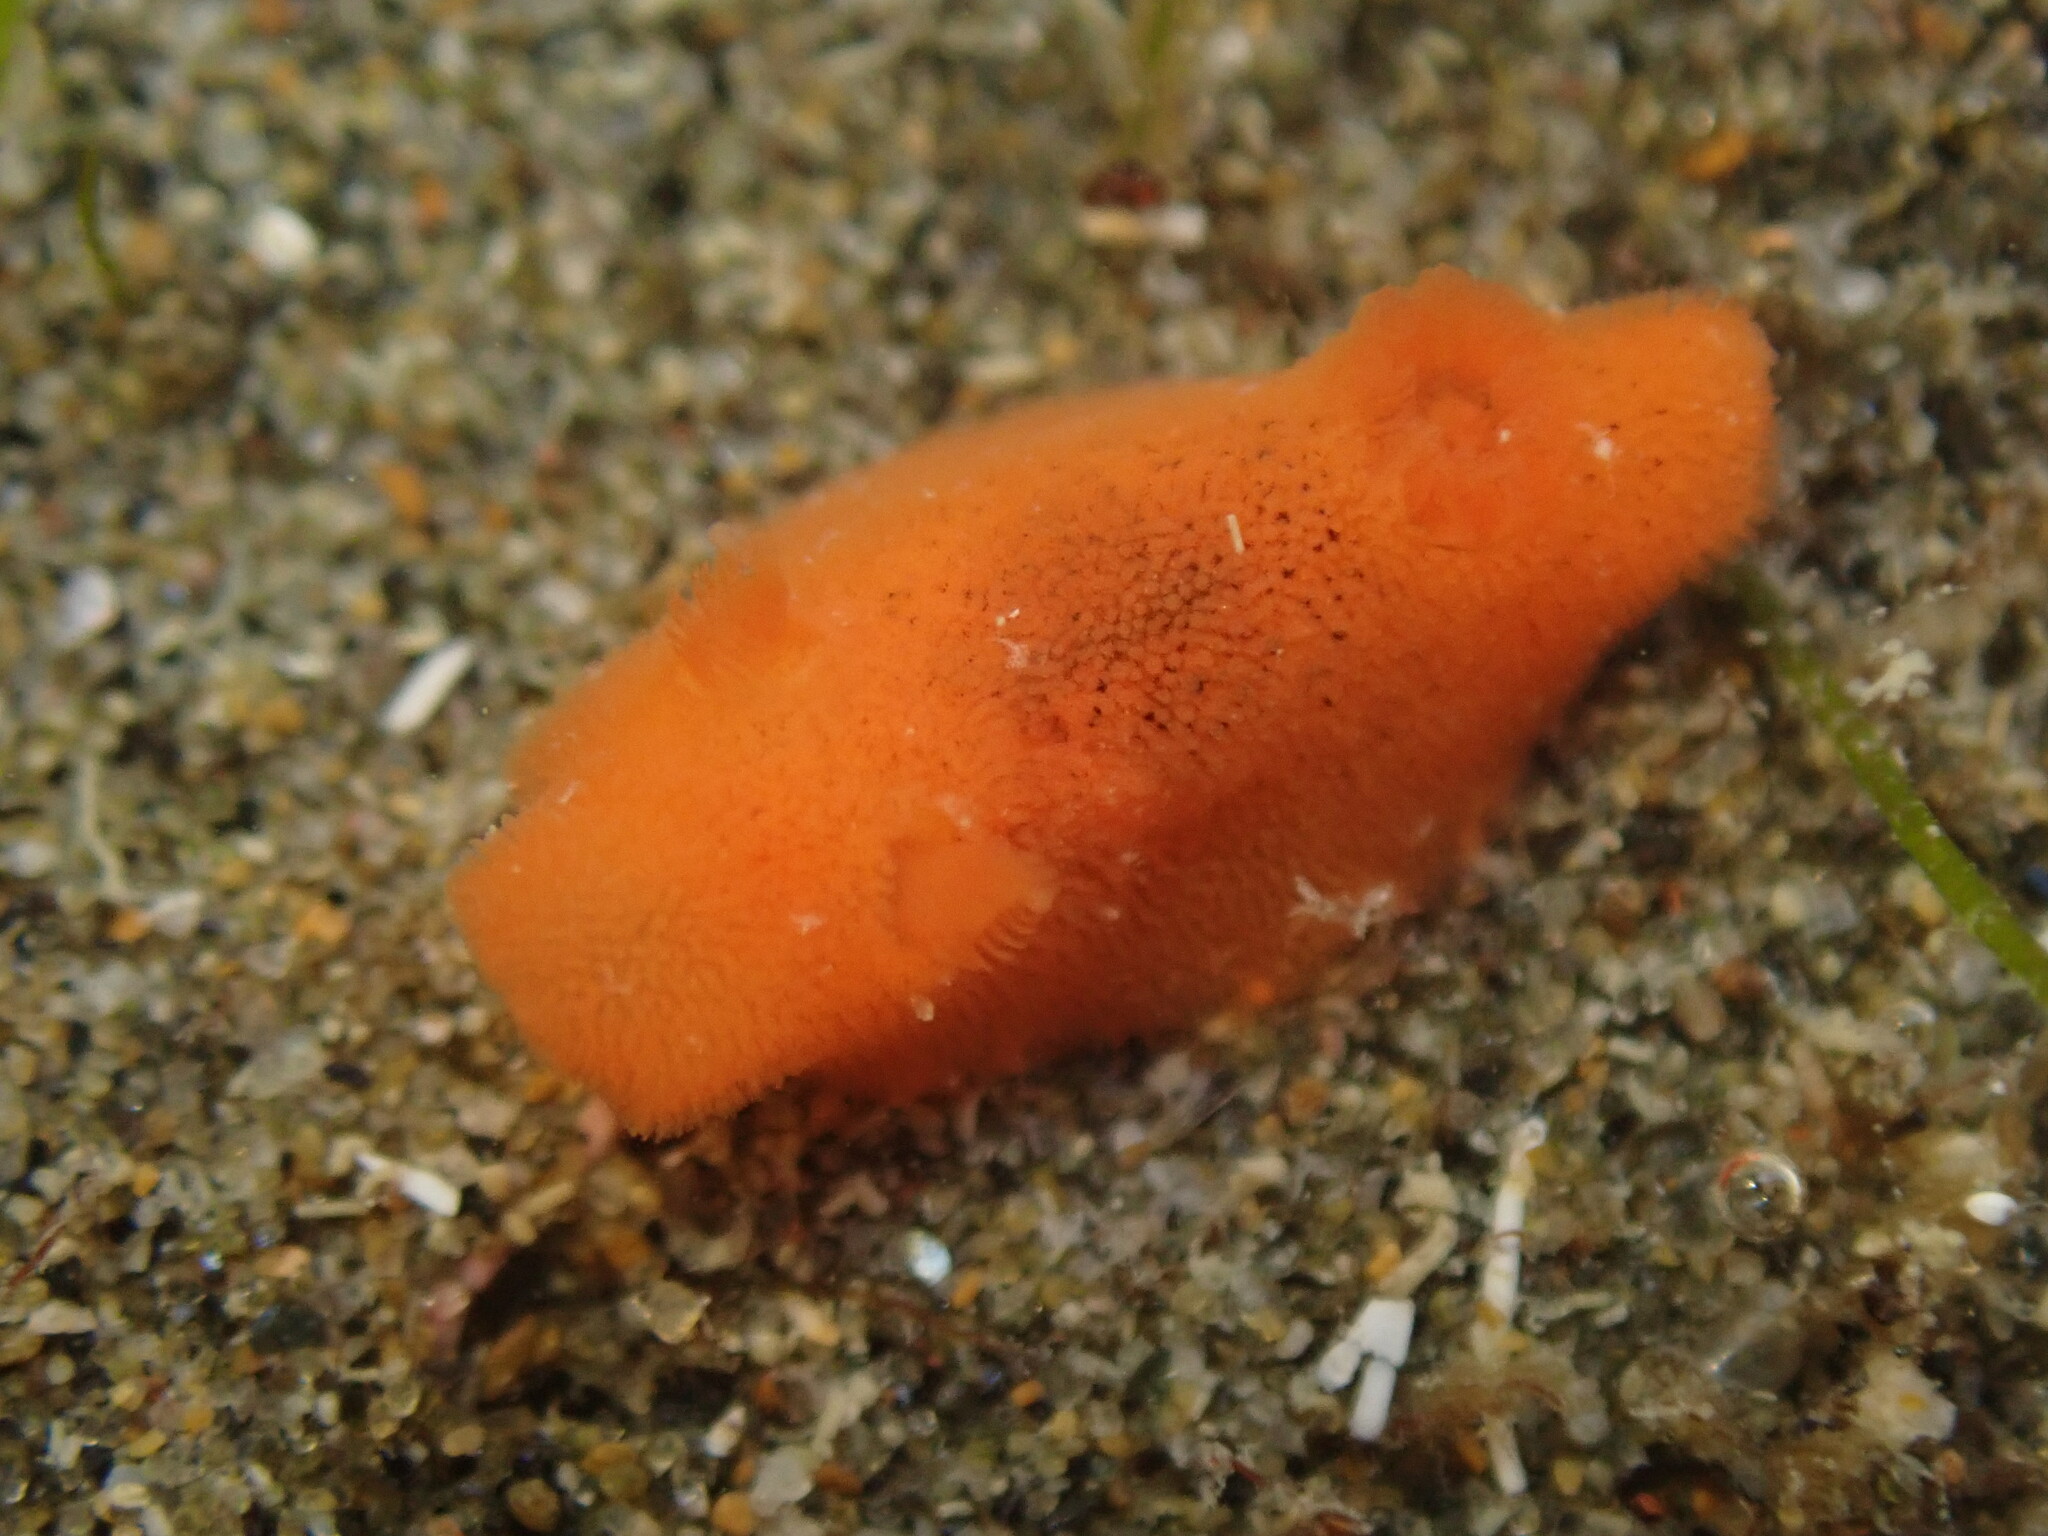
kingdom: Animalia
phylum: Mollusca
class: Gastropoda
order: Nudibranchia
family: Discodorididae
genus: Rostanga
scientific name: Rostanga muscula
